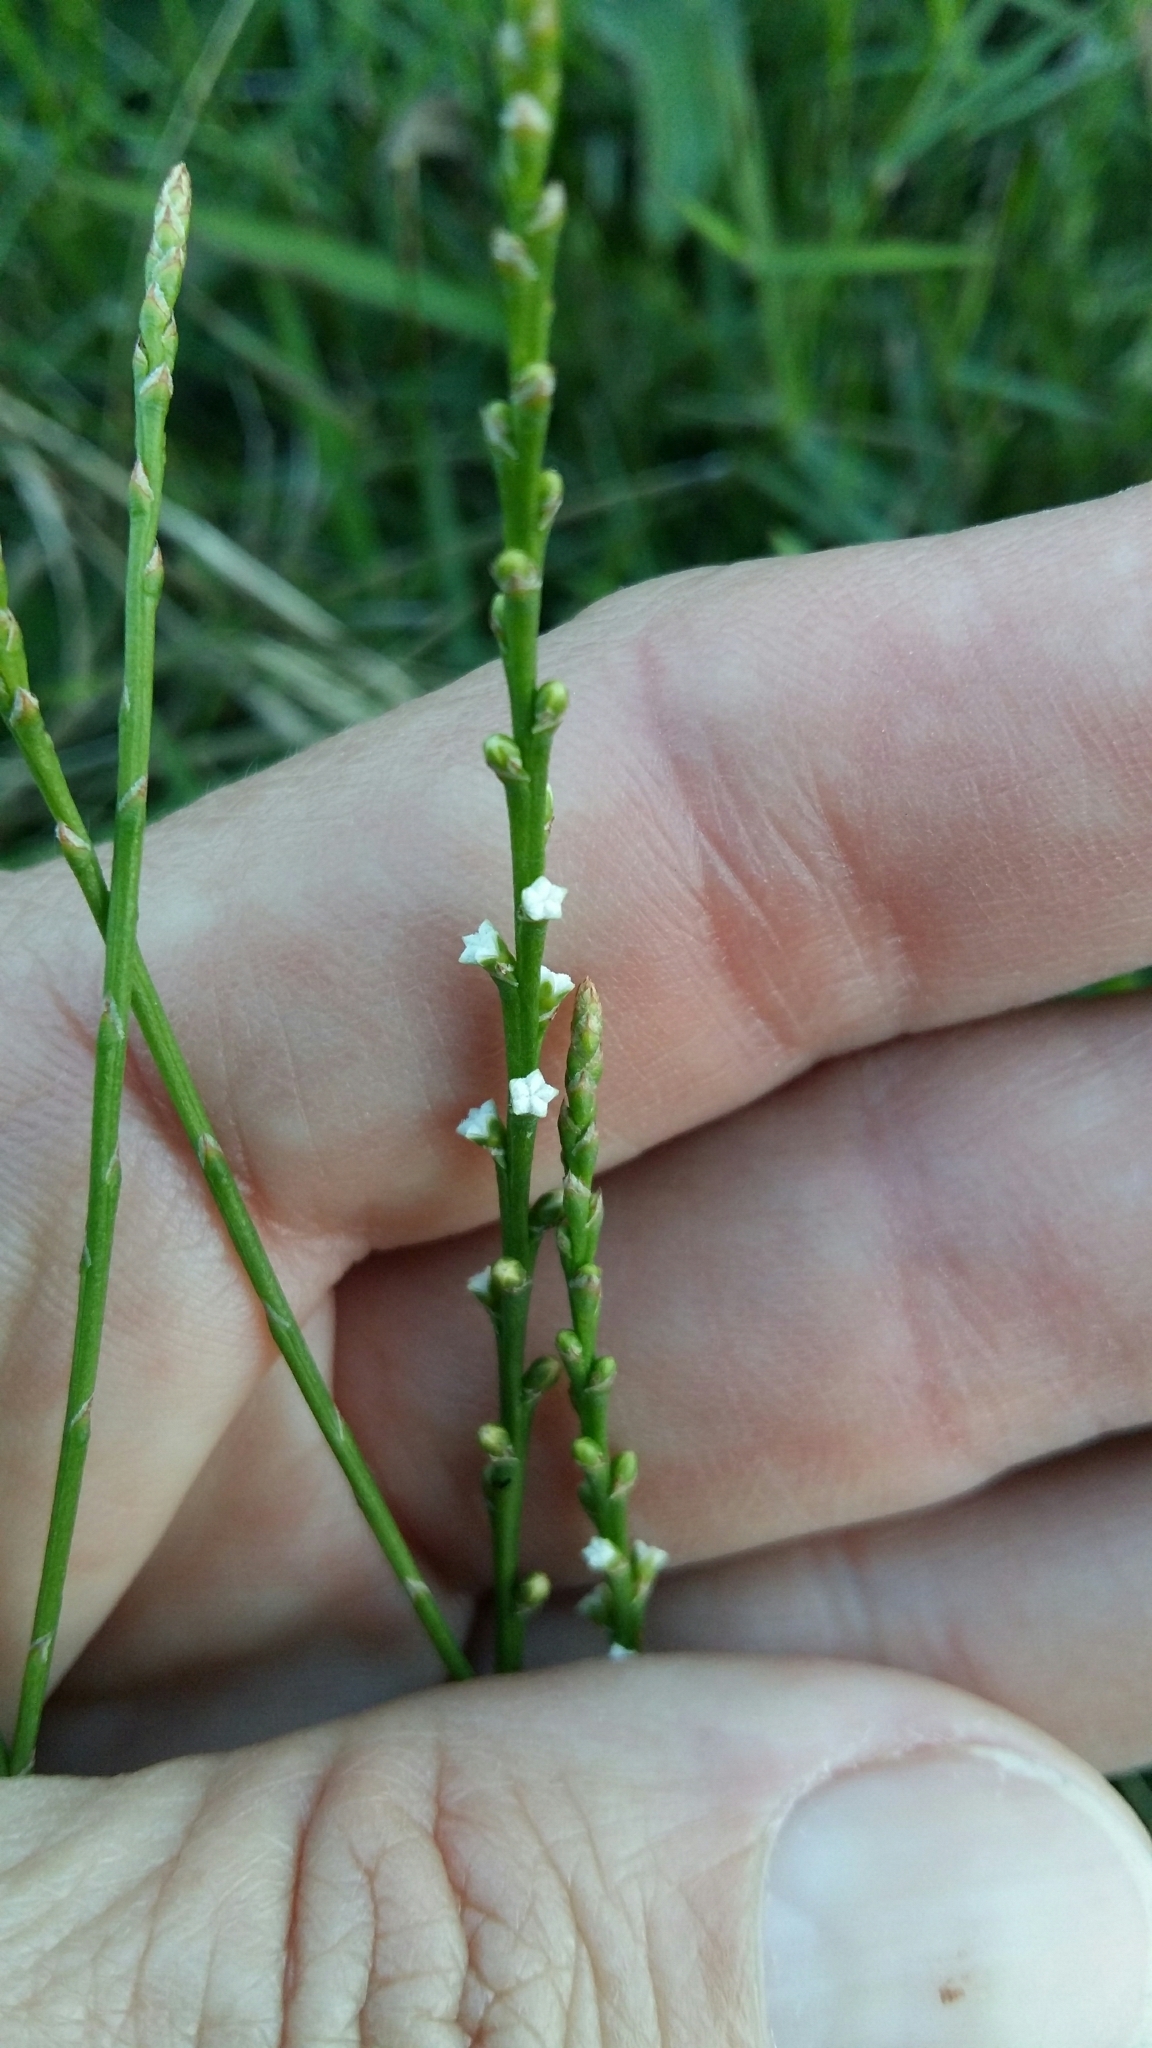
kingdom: Plantae
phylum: Tracheophyta
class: Magnoliopsida
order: Santalales
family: Thesiaceae
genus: Thesium
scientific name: Thesium junceum
